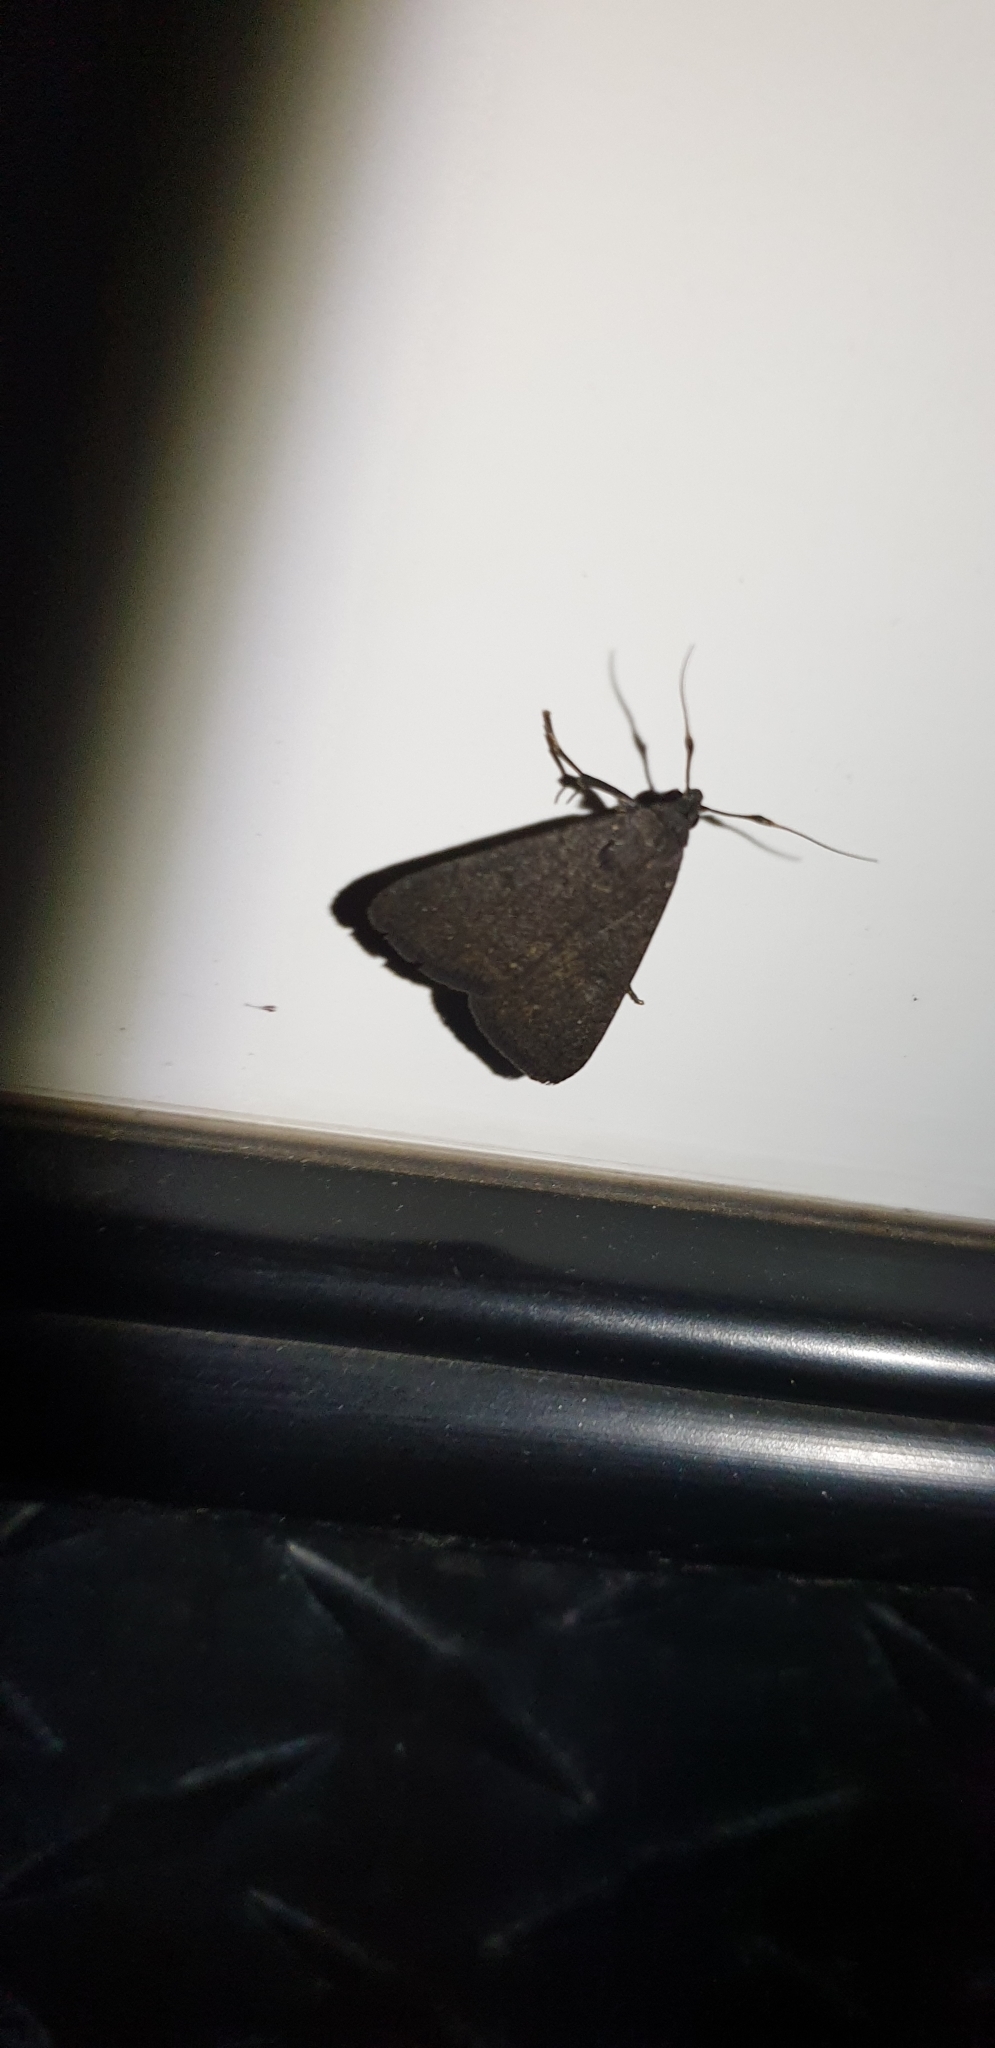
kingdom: Animalia
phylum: Arthropoda
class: Insecta
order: Lepidoptera
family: Erebidae
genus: Simplicia
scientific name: Simplicia cornicalis
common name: Tiki hut litter moth
